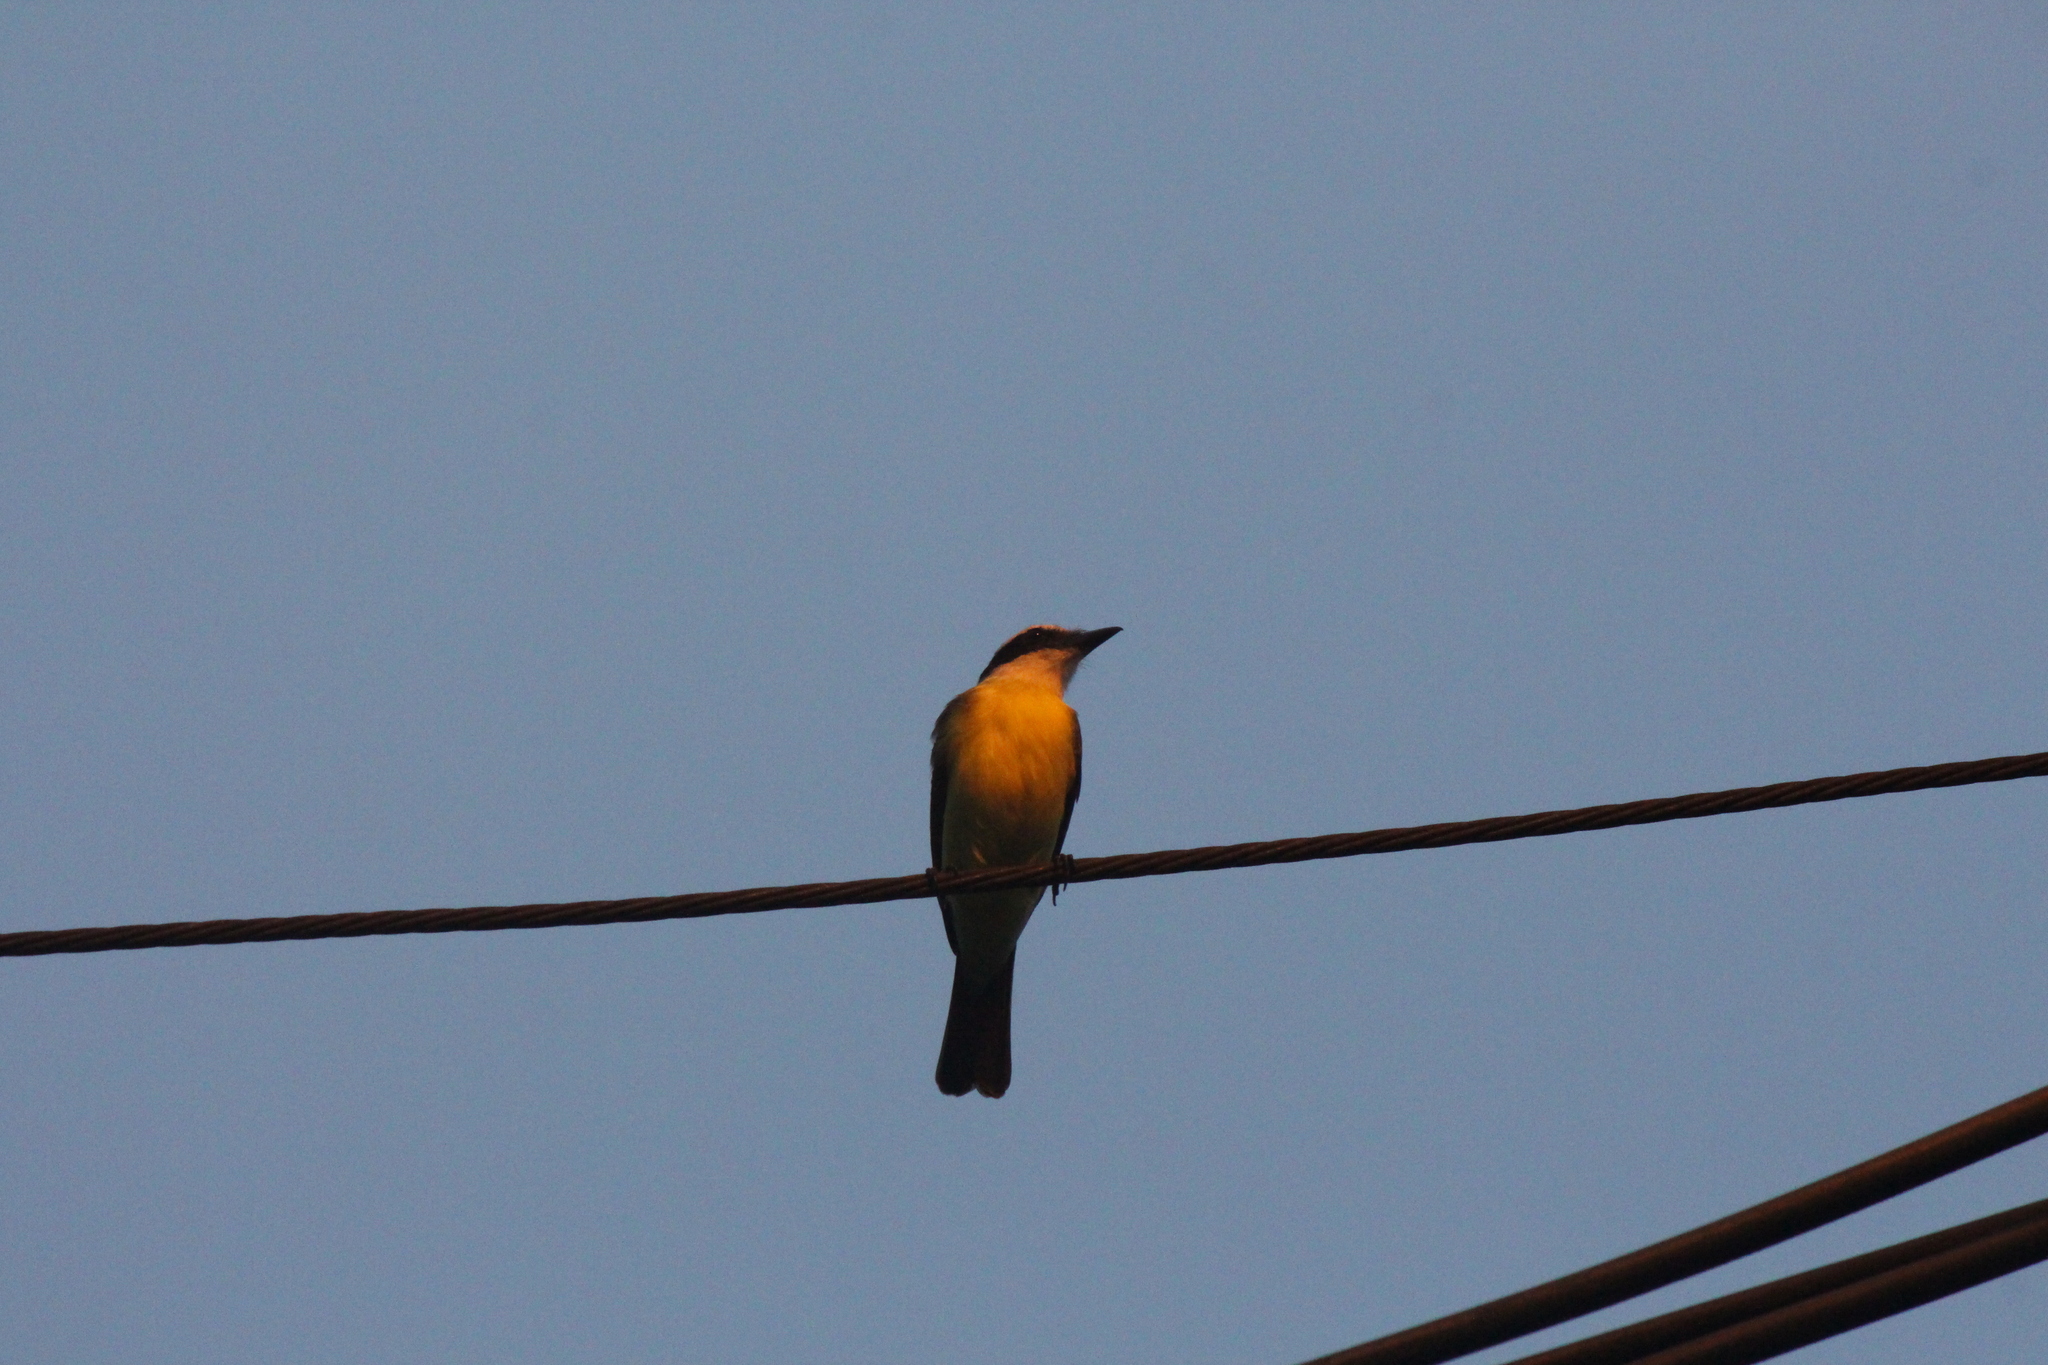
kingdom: Animalia
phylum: Chordata
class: Aves
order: Passeriformes
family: Tyrannidae
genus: Pitangus
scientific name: Pitangus sulphuratus
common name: Great kiskadee
